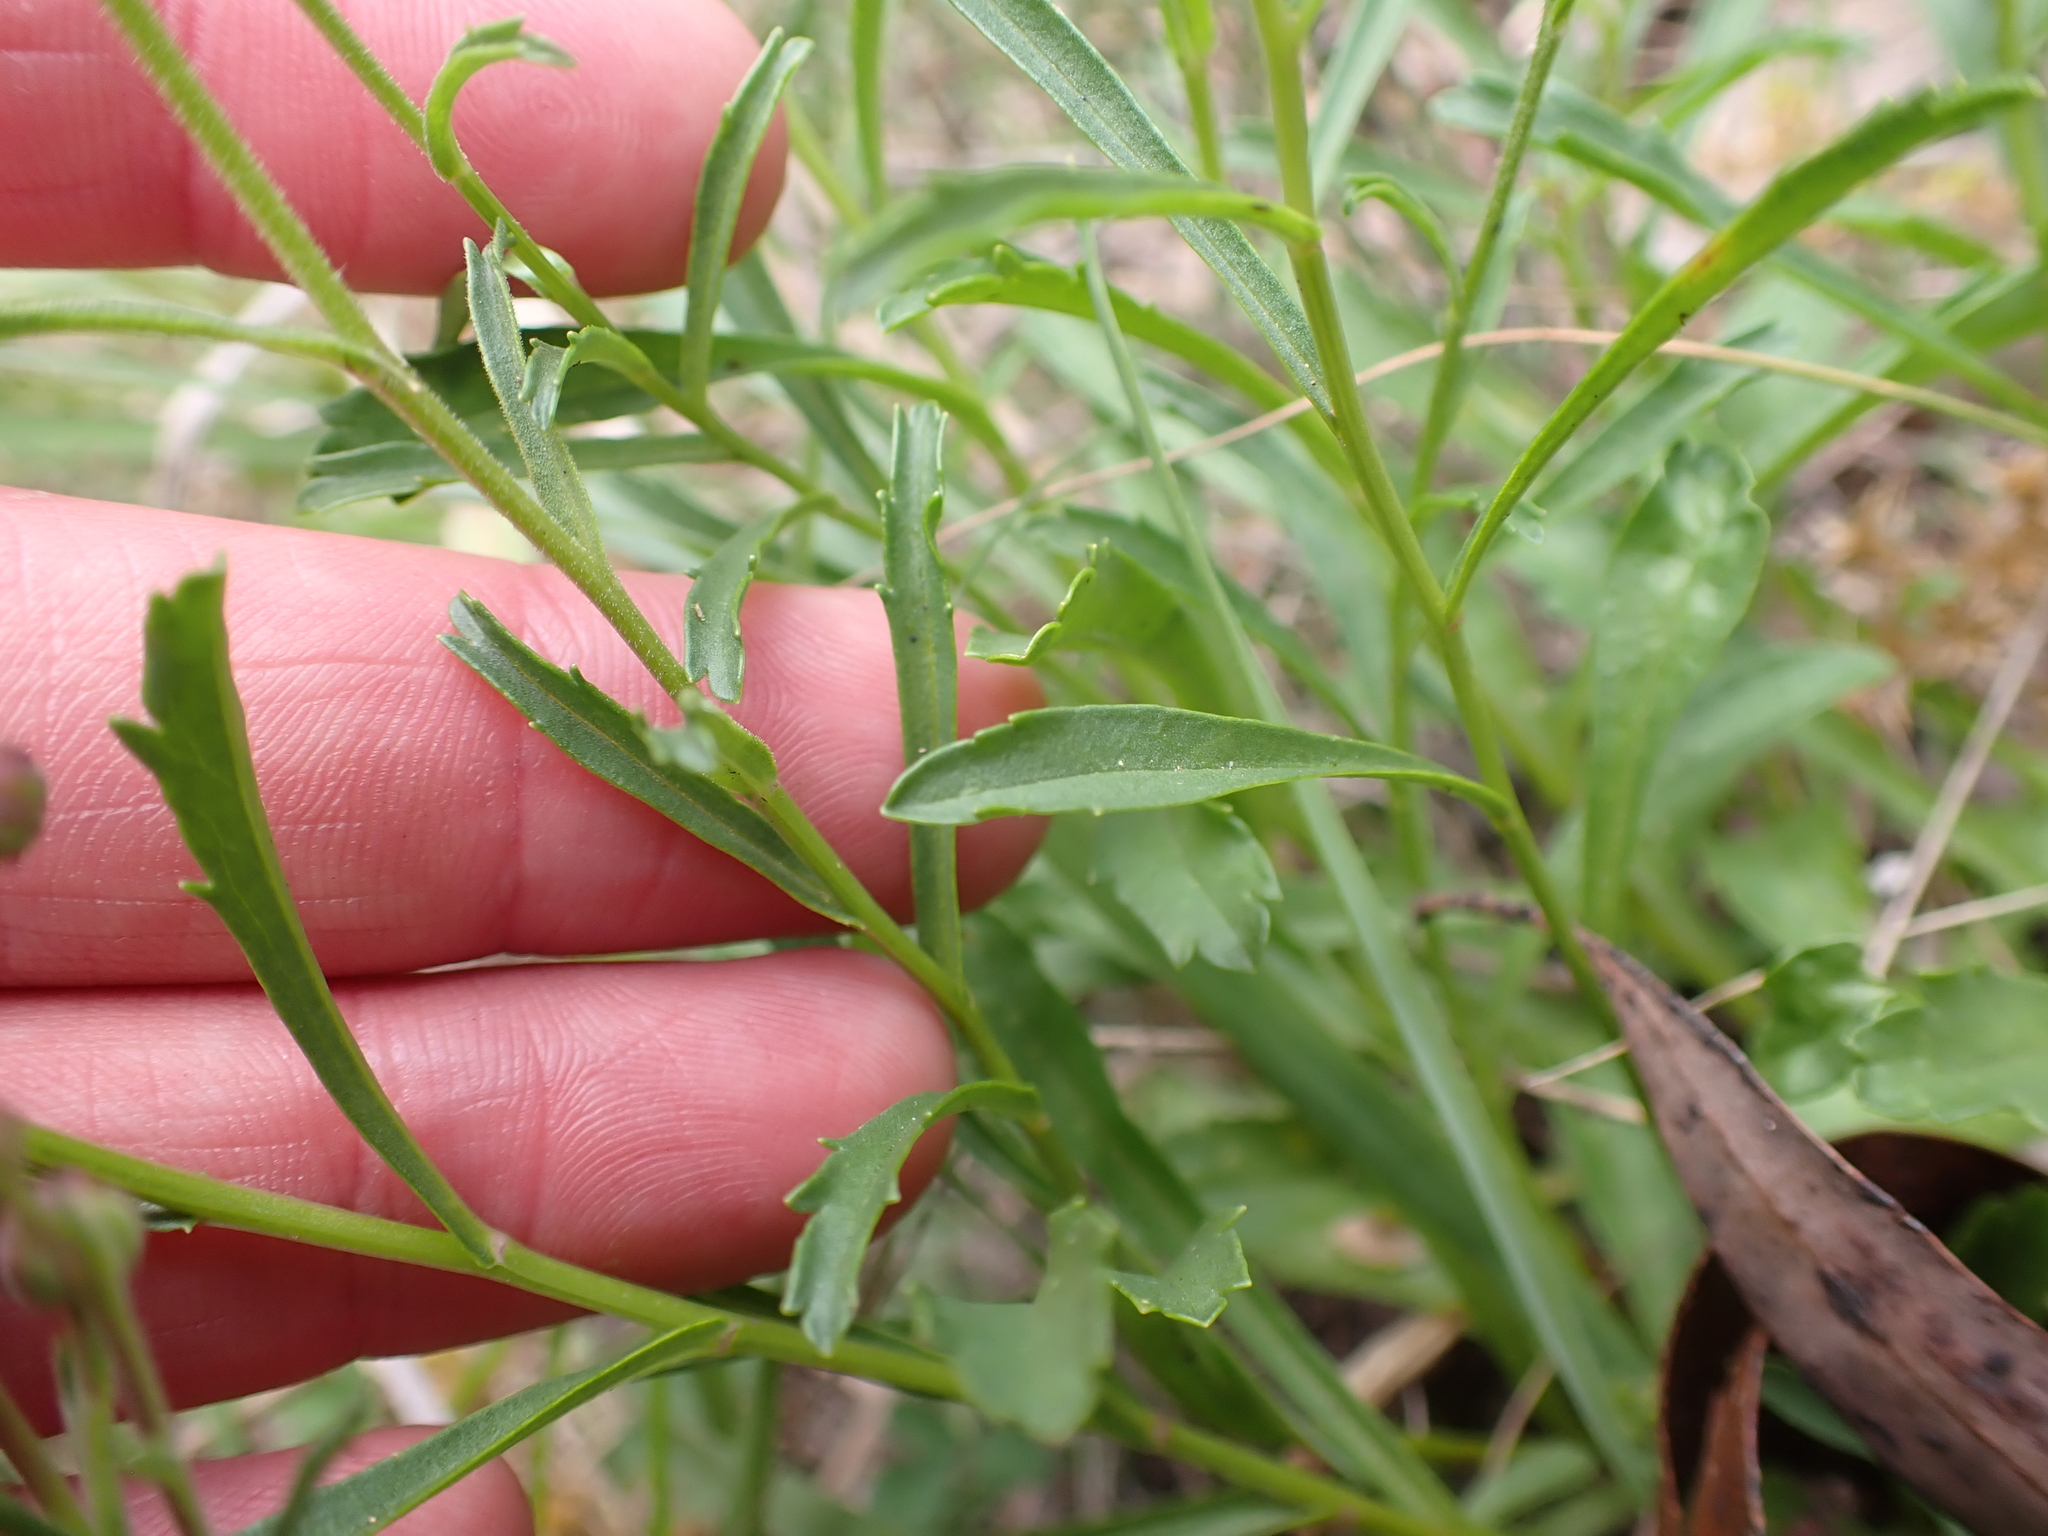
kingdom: Plantae
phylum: Tracheophyta
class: Magnoliopsida
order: Asterales
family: Asteraceae
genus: Brachyscome
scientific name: Brachyscome aculeata
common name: Hill daisy
